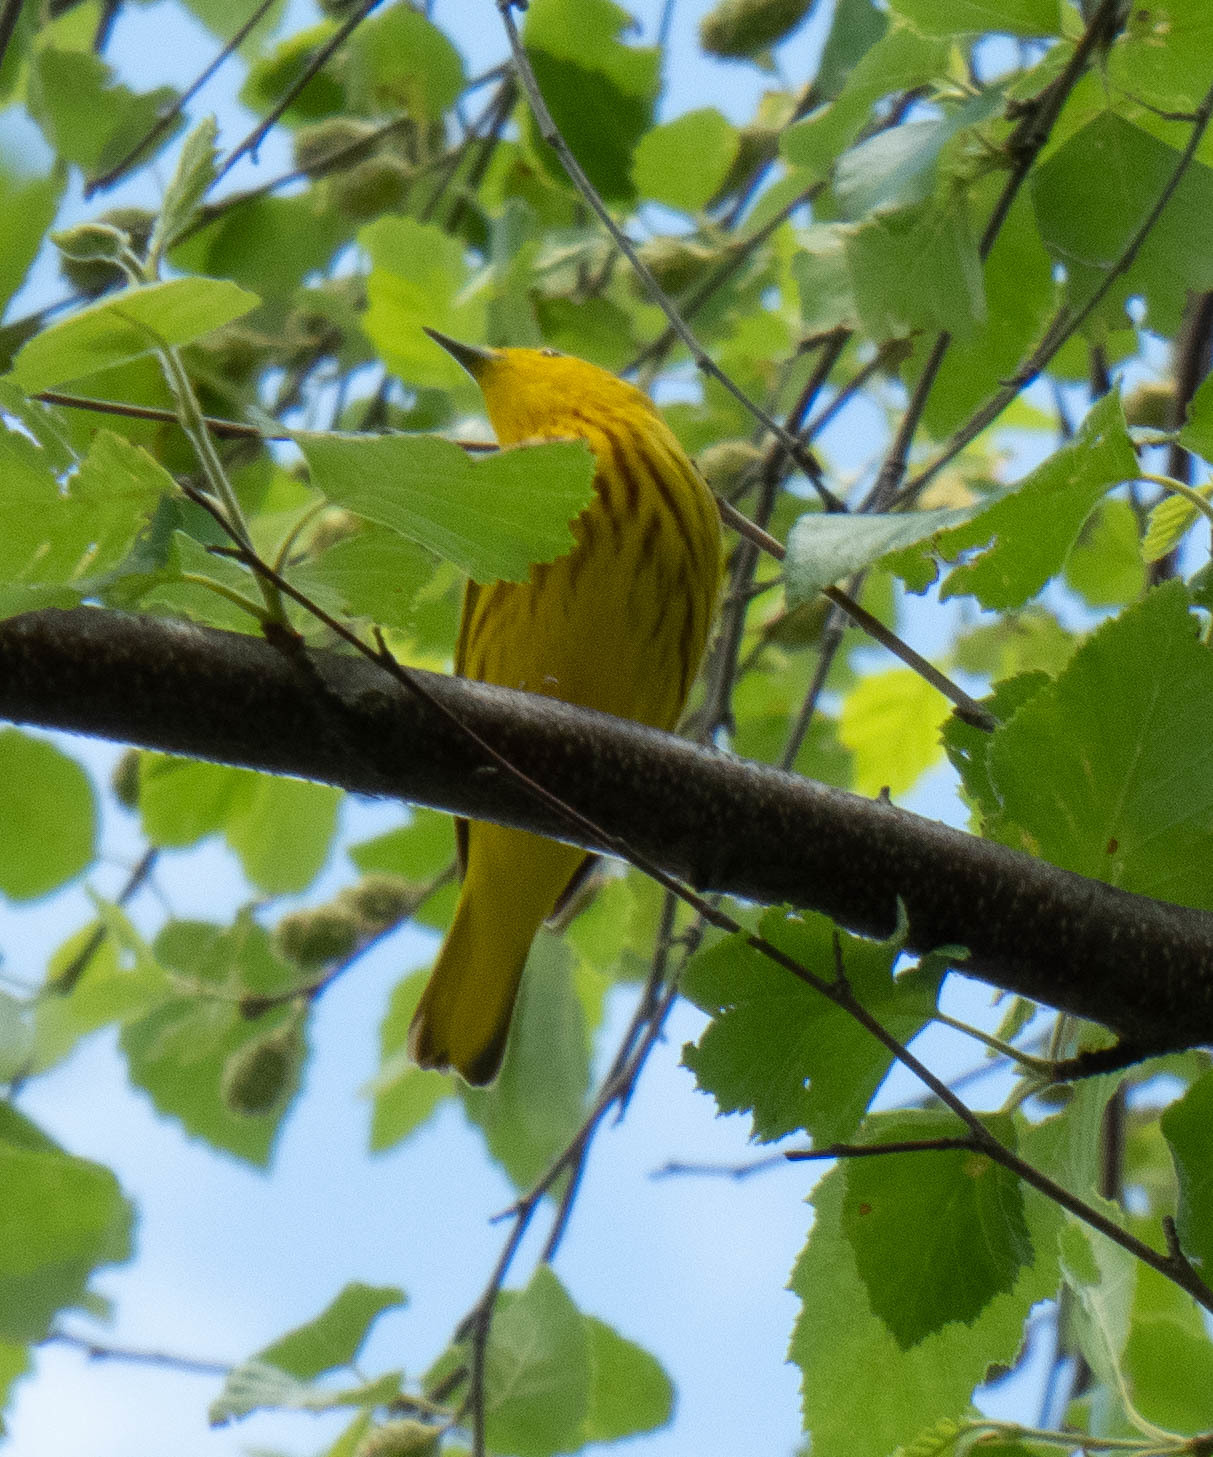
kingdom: Animalia
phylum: Chordata
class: Aves
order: Passeriformes
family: Parulidae
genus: Setophaga
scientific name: Setophaga petechia
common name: Yellow warbler
